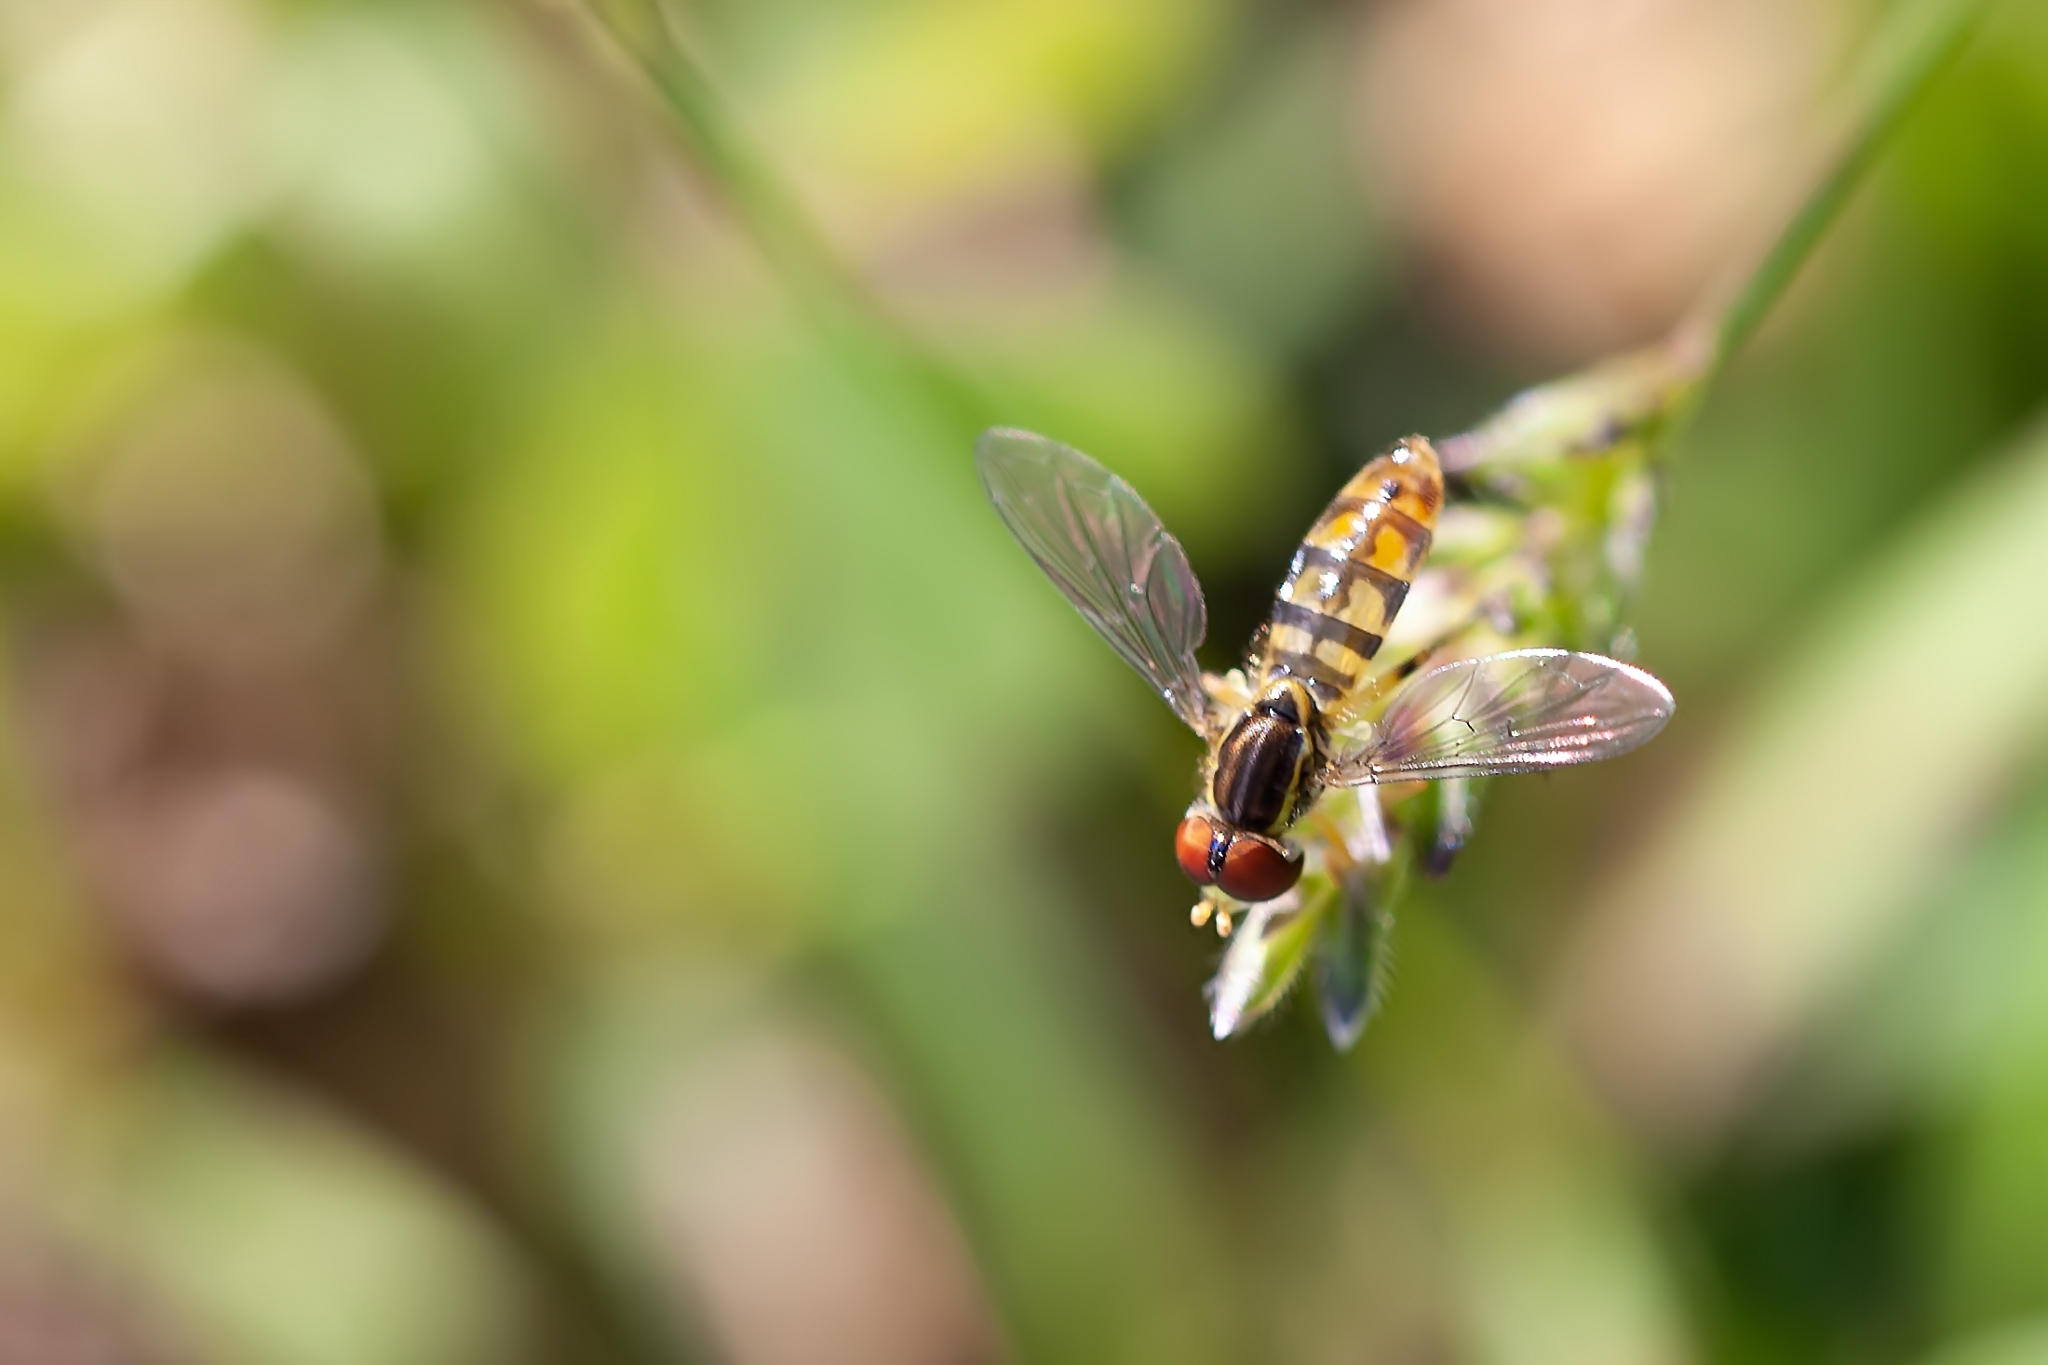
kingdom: Animalia
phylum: Arthropoda
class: Insecta
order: Diptera
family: Syrphidae
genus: Toxomerus
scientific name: Toxomerus floralis
